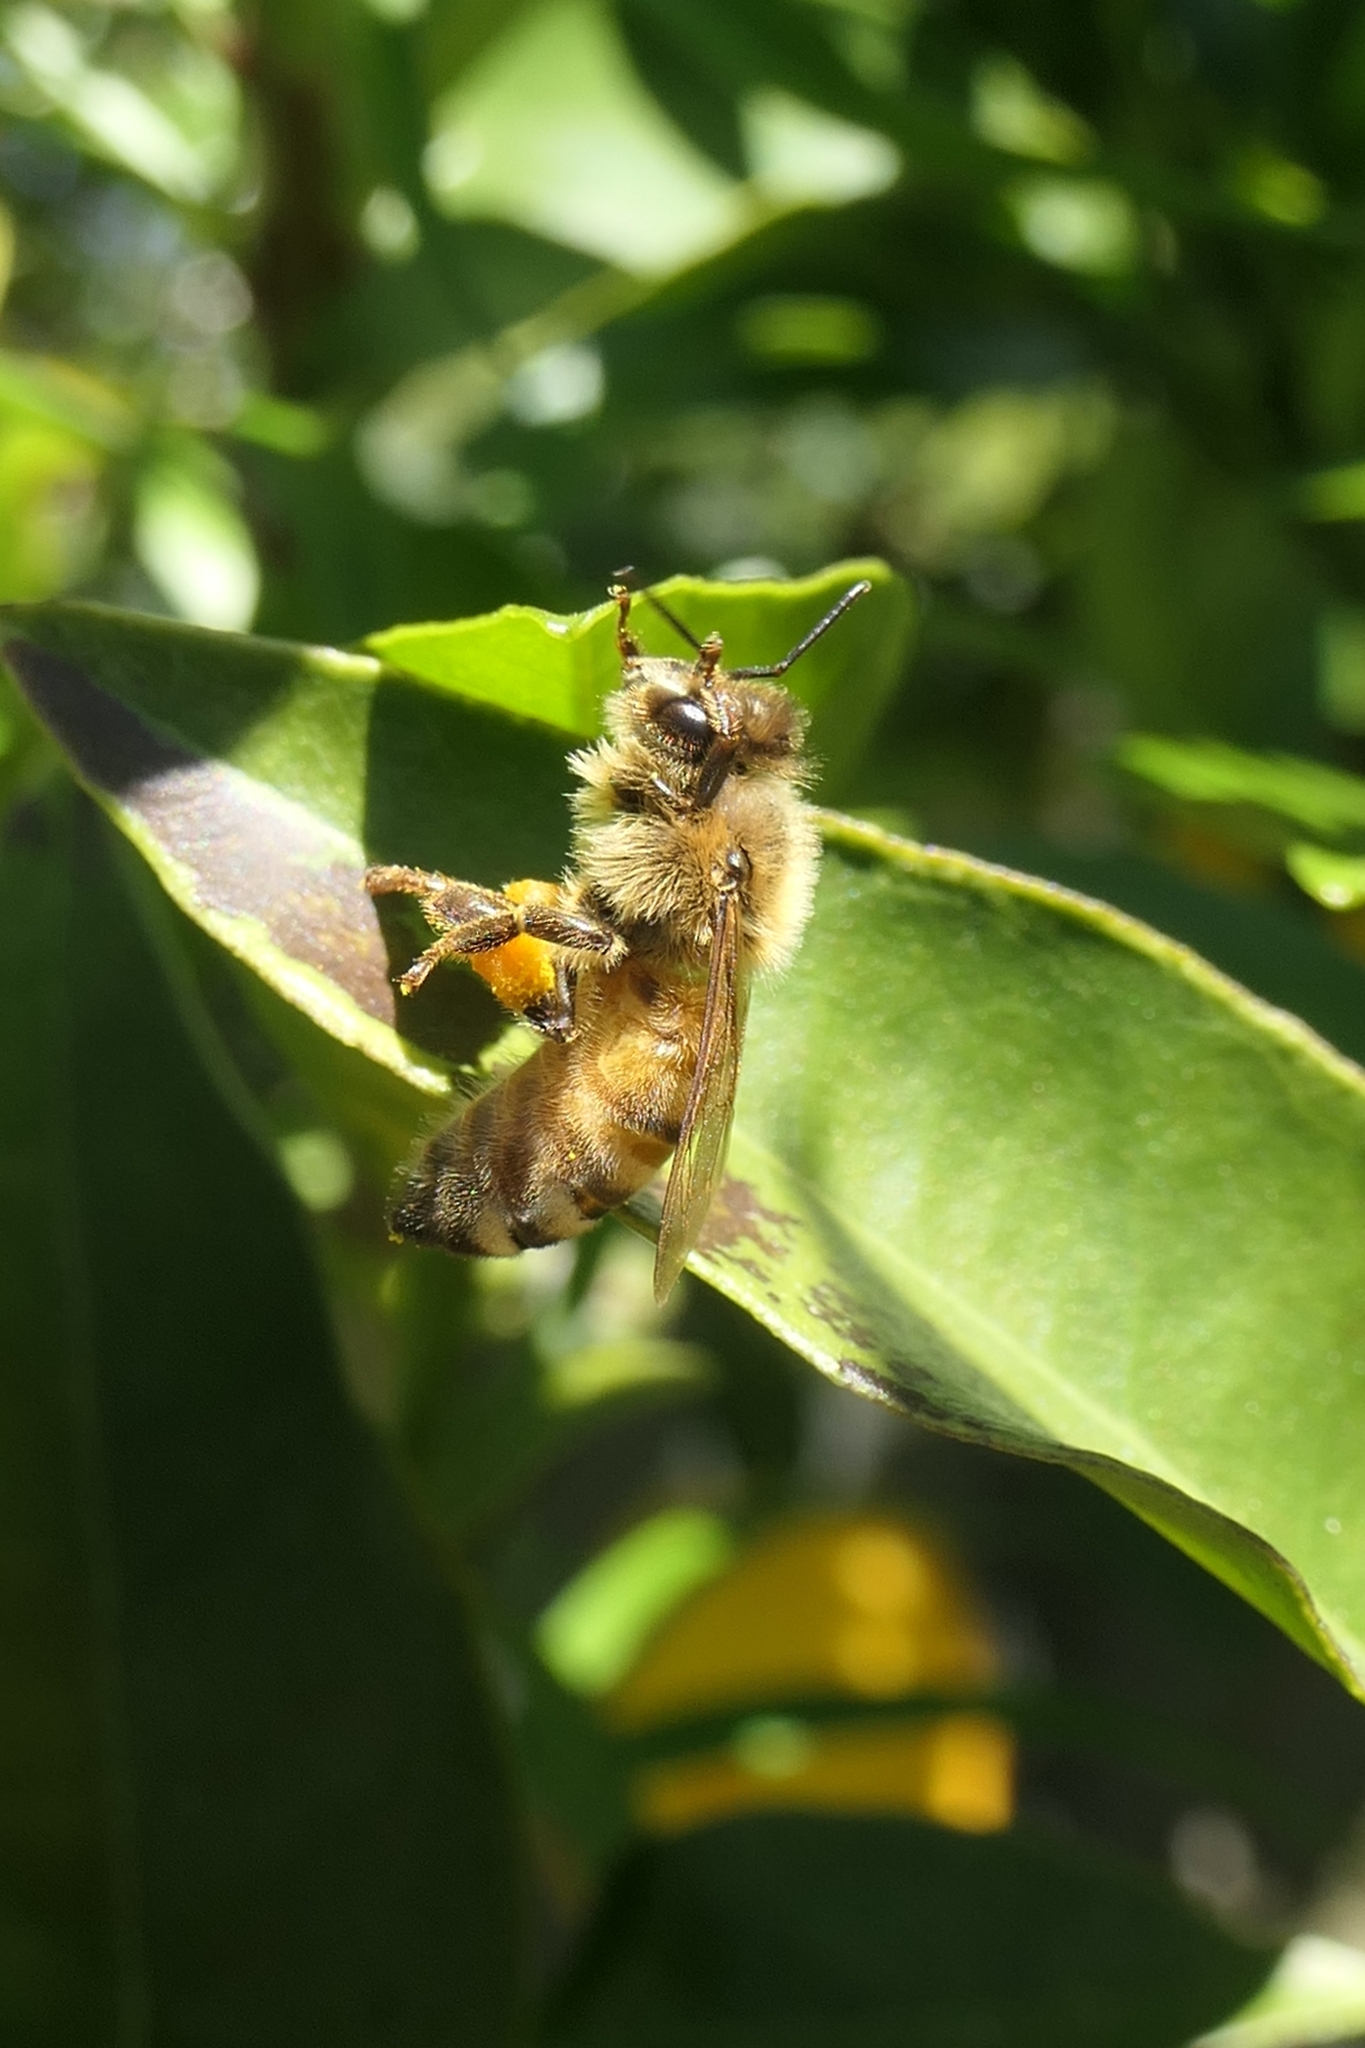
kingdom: Animalia
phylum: Arthropoda
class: Insecta
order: Hymenoptera
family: Apidae
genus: Apis
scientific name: Apis mellifera
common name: Honey bee
